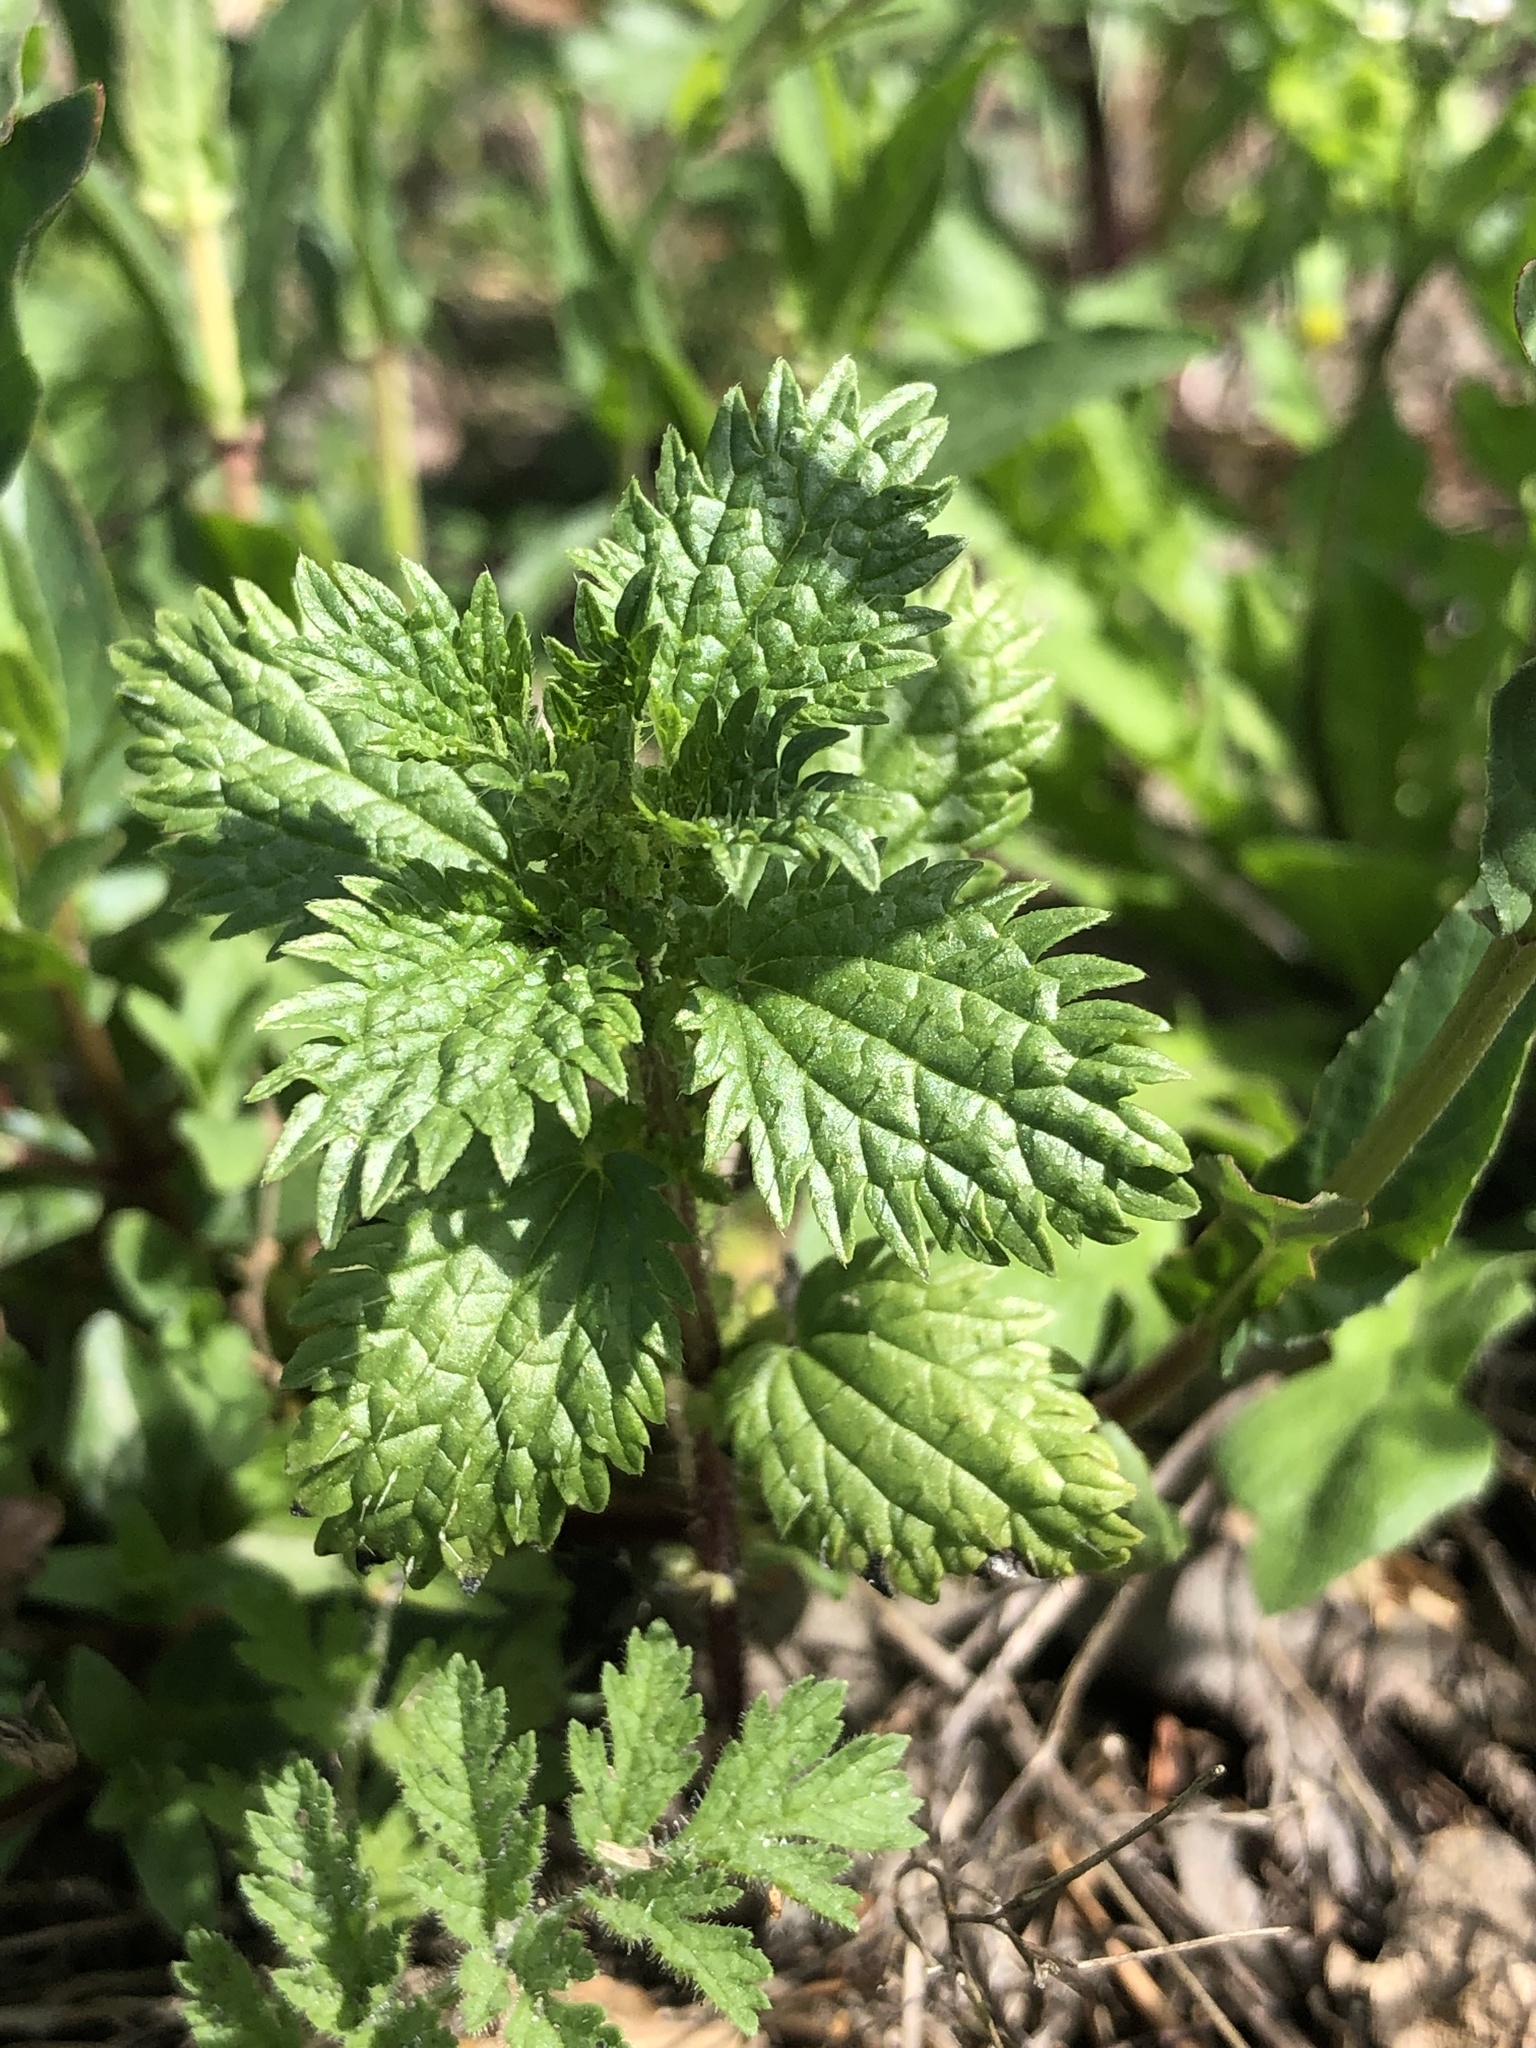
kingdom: Plantae
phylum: Tracheophyta
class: Magnoliopsida
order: Rosales
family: Urticaceae
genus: Urtica
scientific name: Urtica urens
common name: Dwarf nettle
